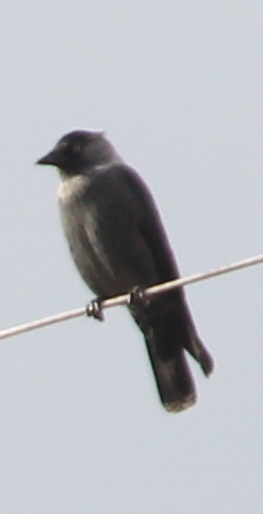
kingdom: Animalia
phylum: Chordata
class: Aves
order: Passeriformes
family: Corvidae
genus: Coloeus
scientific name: Coloeus monedula
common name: Western jackdaw
